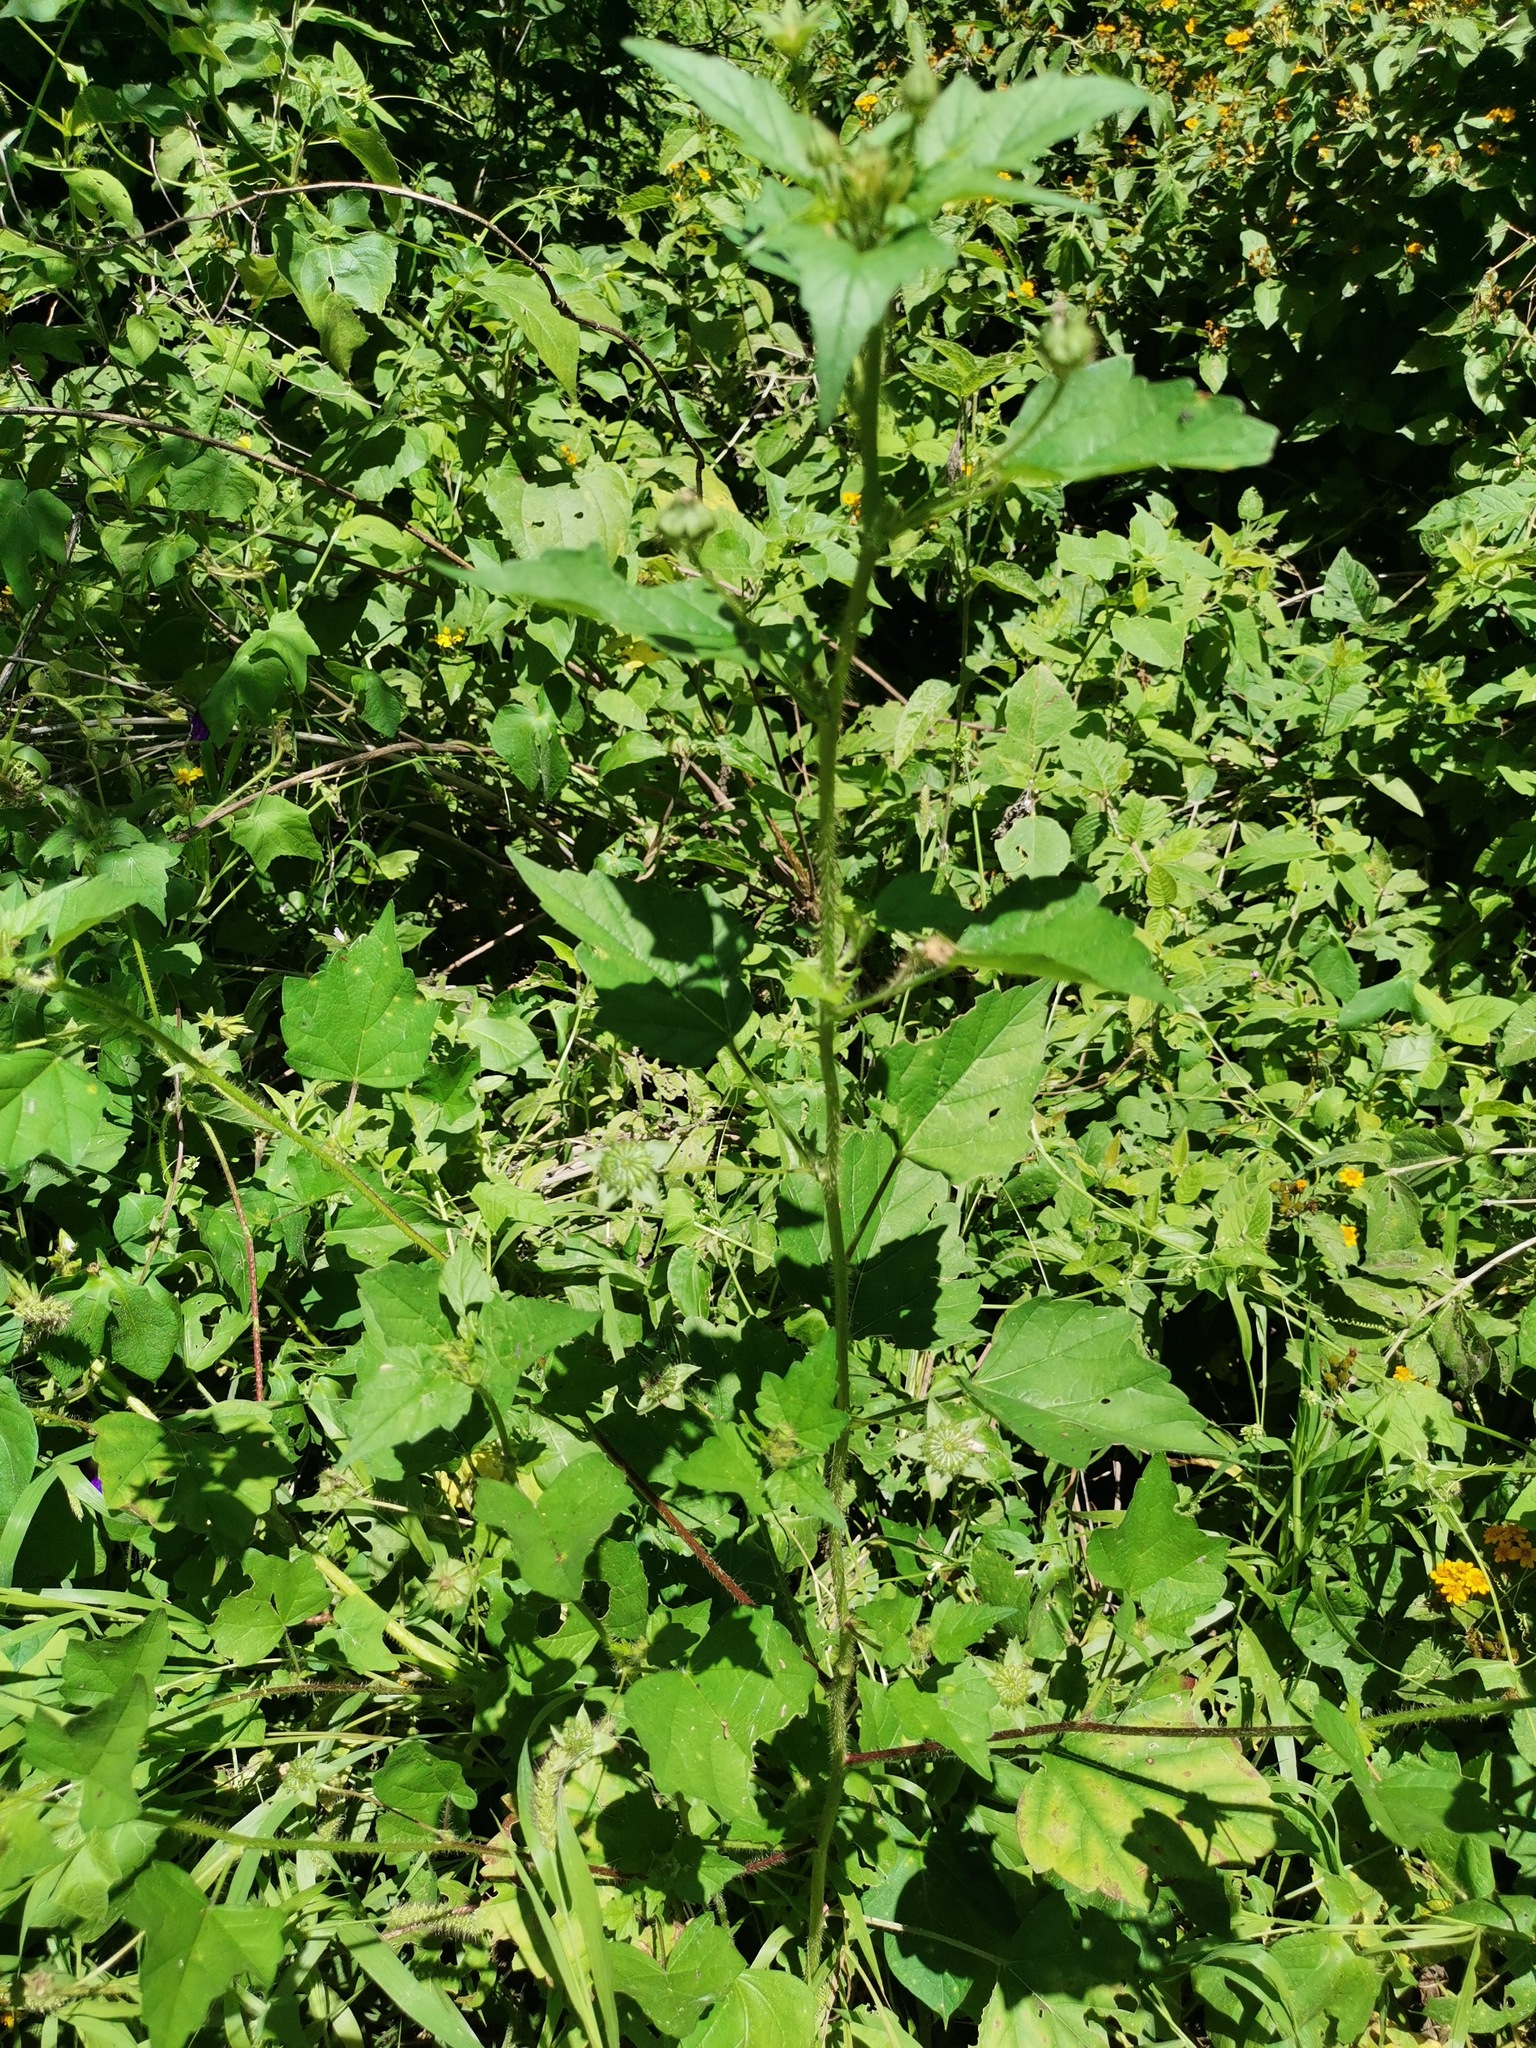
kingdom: Plantae
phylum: Tracheophyta
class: Magnoliopsida
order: Asterales
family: Asteraceae
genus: Tithonia
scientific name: Tithonia tubaeformis
